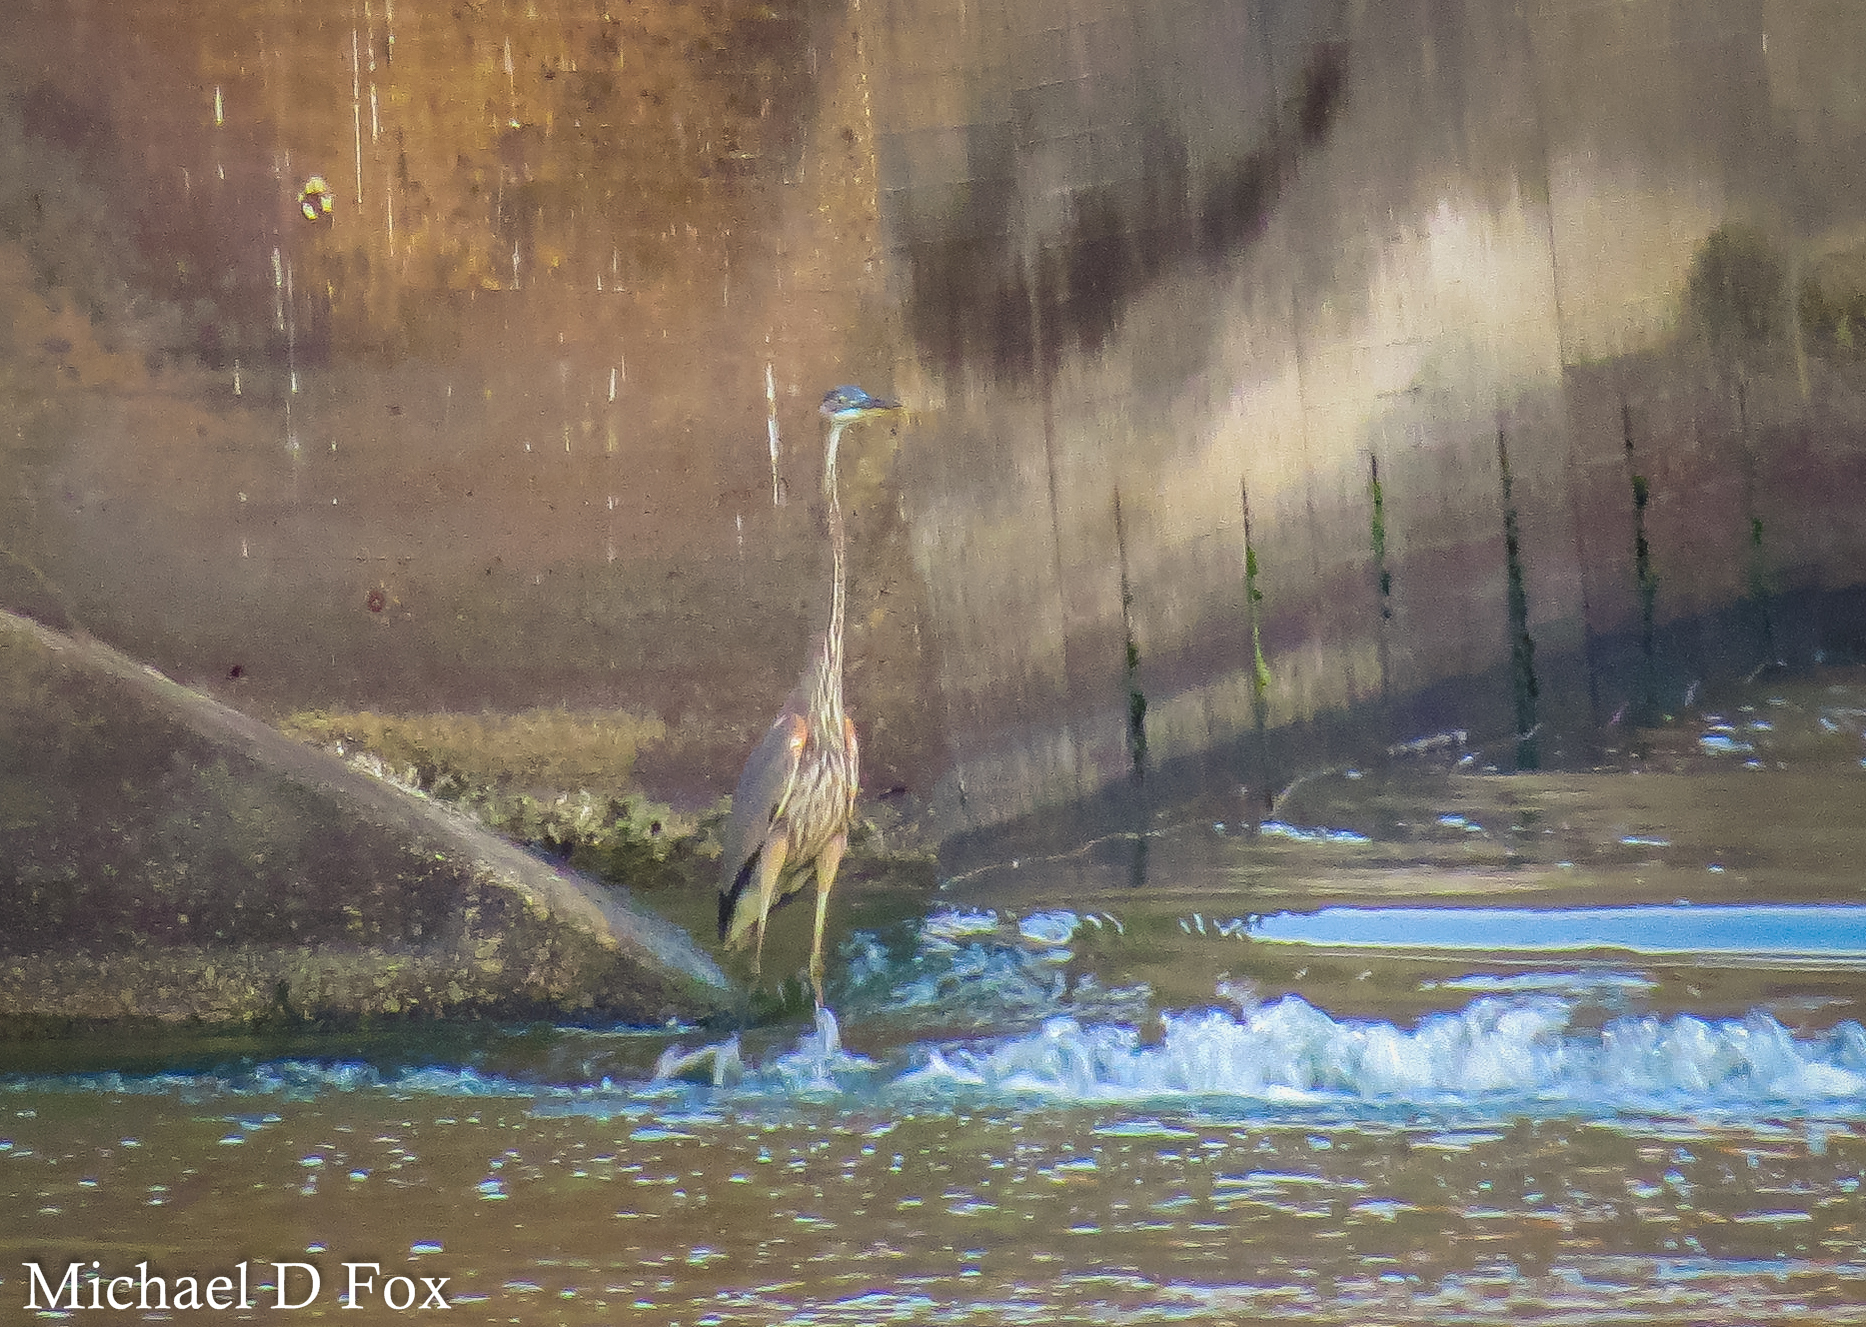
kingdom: Animalia
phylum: Chordata
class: Aves
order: Pelecaniformes
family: Ardeidae
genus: Ardea
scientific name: Ardea herodias
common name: Great blue heron
